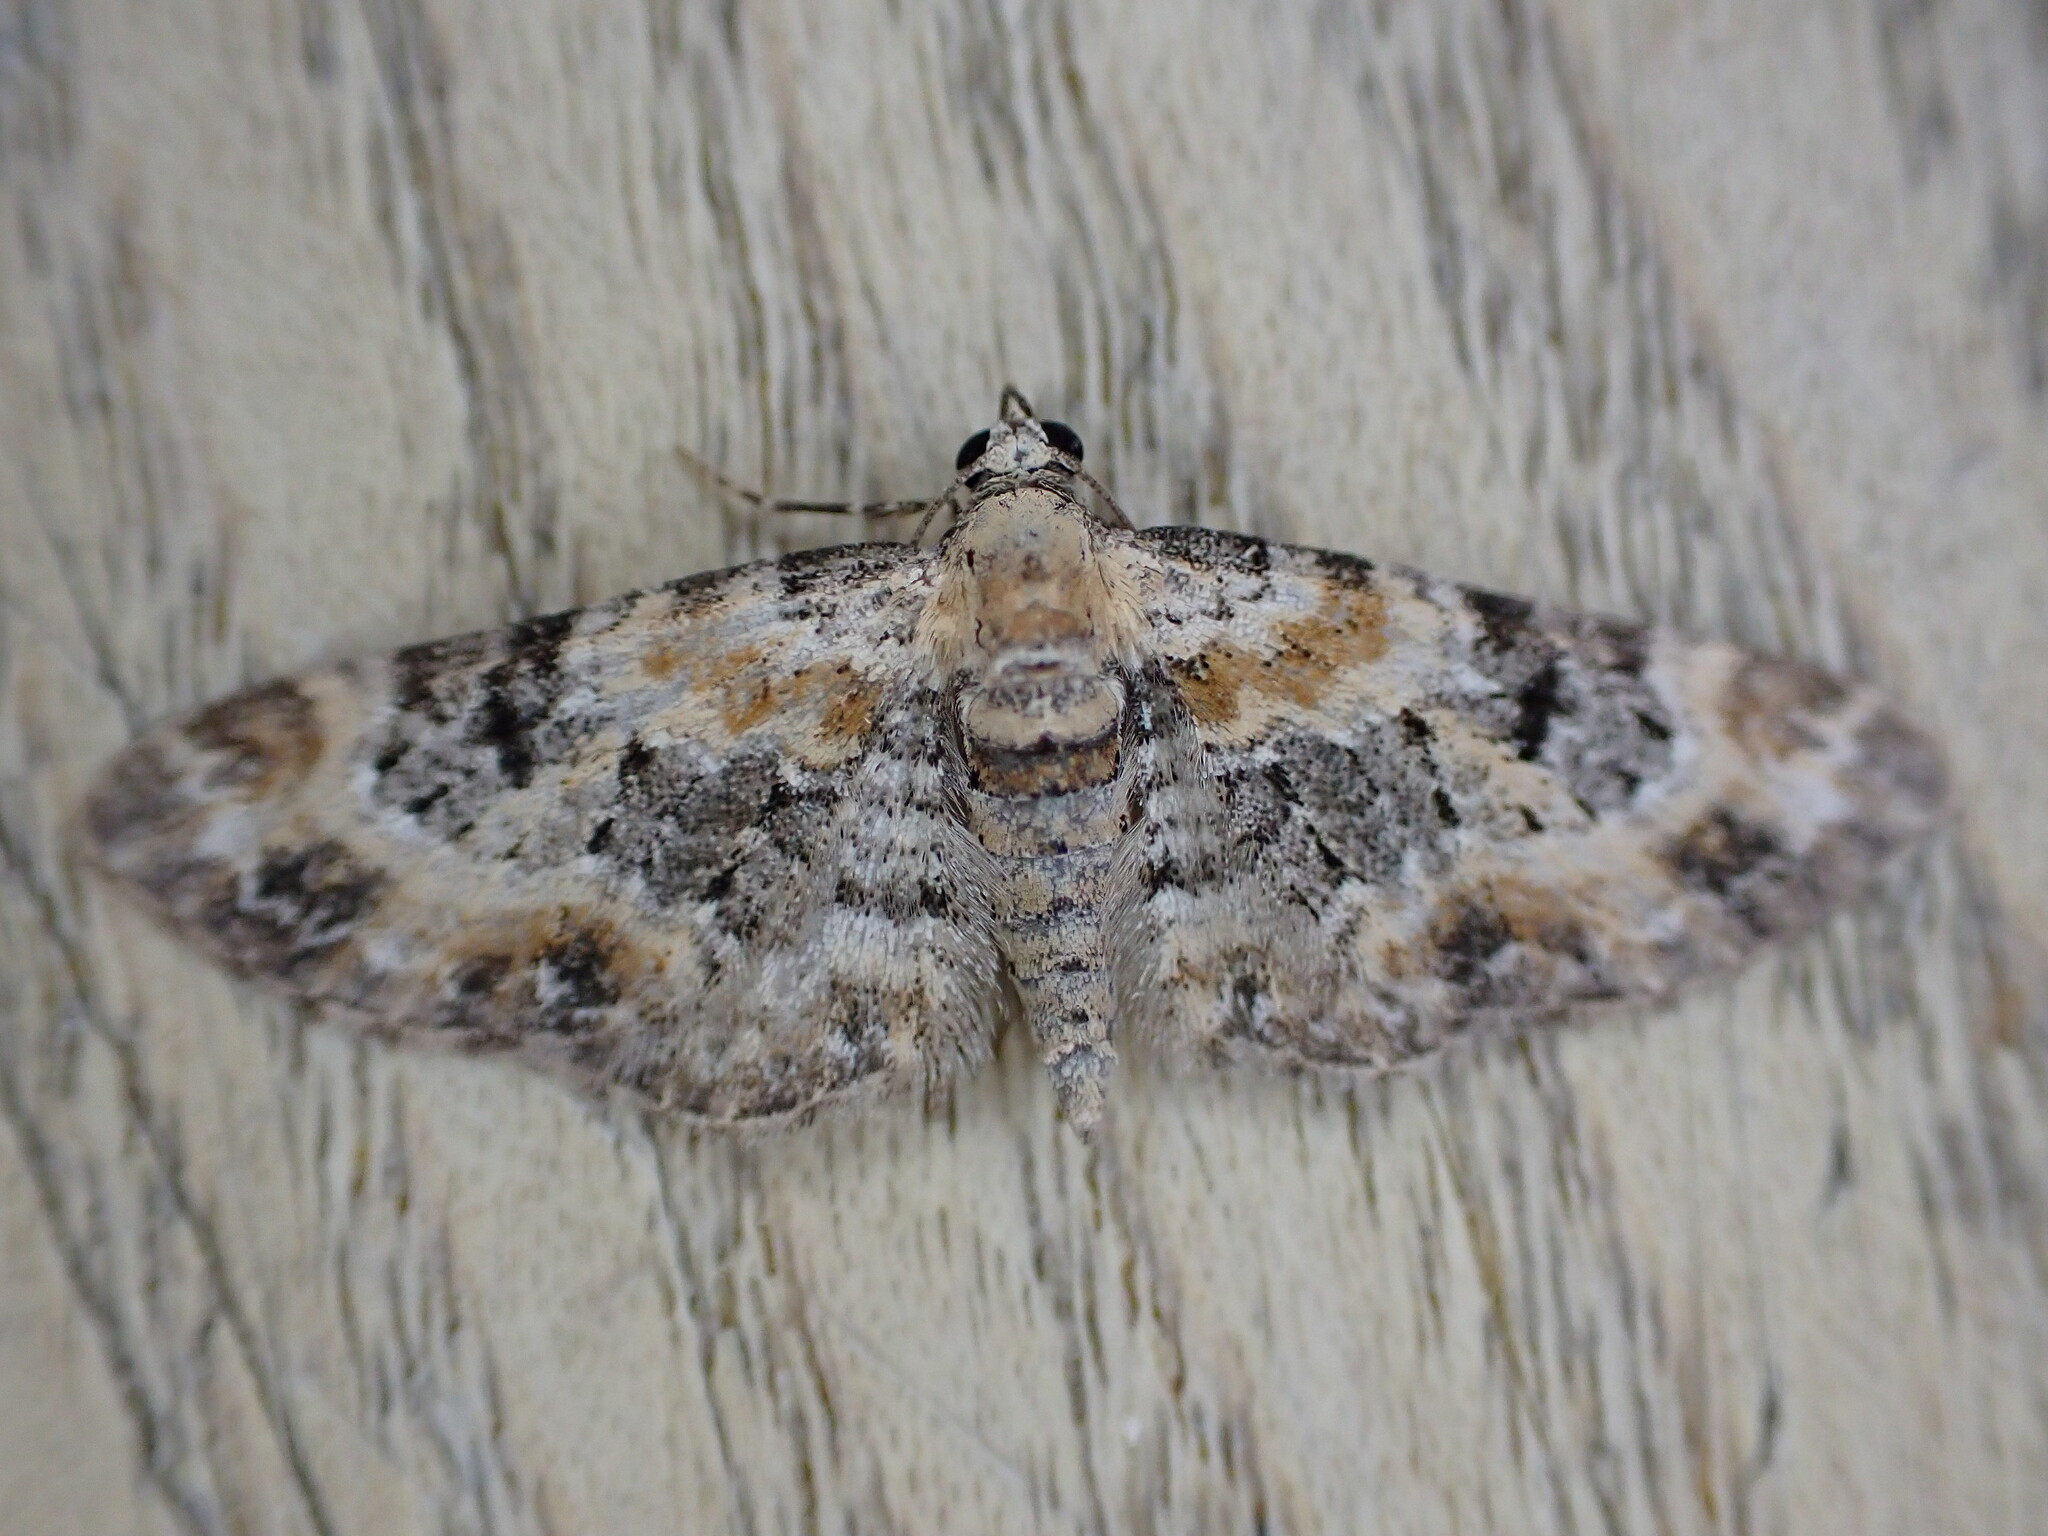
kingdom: Animalia
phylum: Arthropoda
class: Insecta
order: Lepidoptera
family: Geometridae
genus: Eupithecia
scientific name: Eupithecia pulchellata
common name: Foxglove pug
